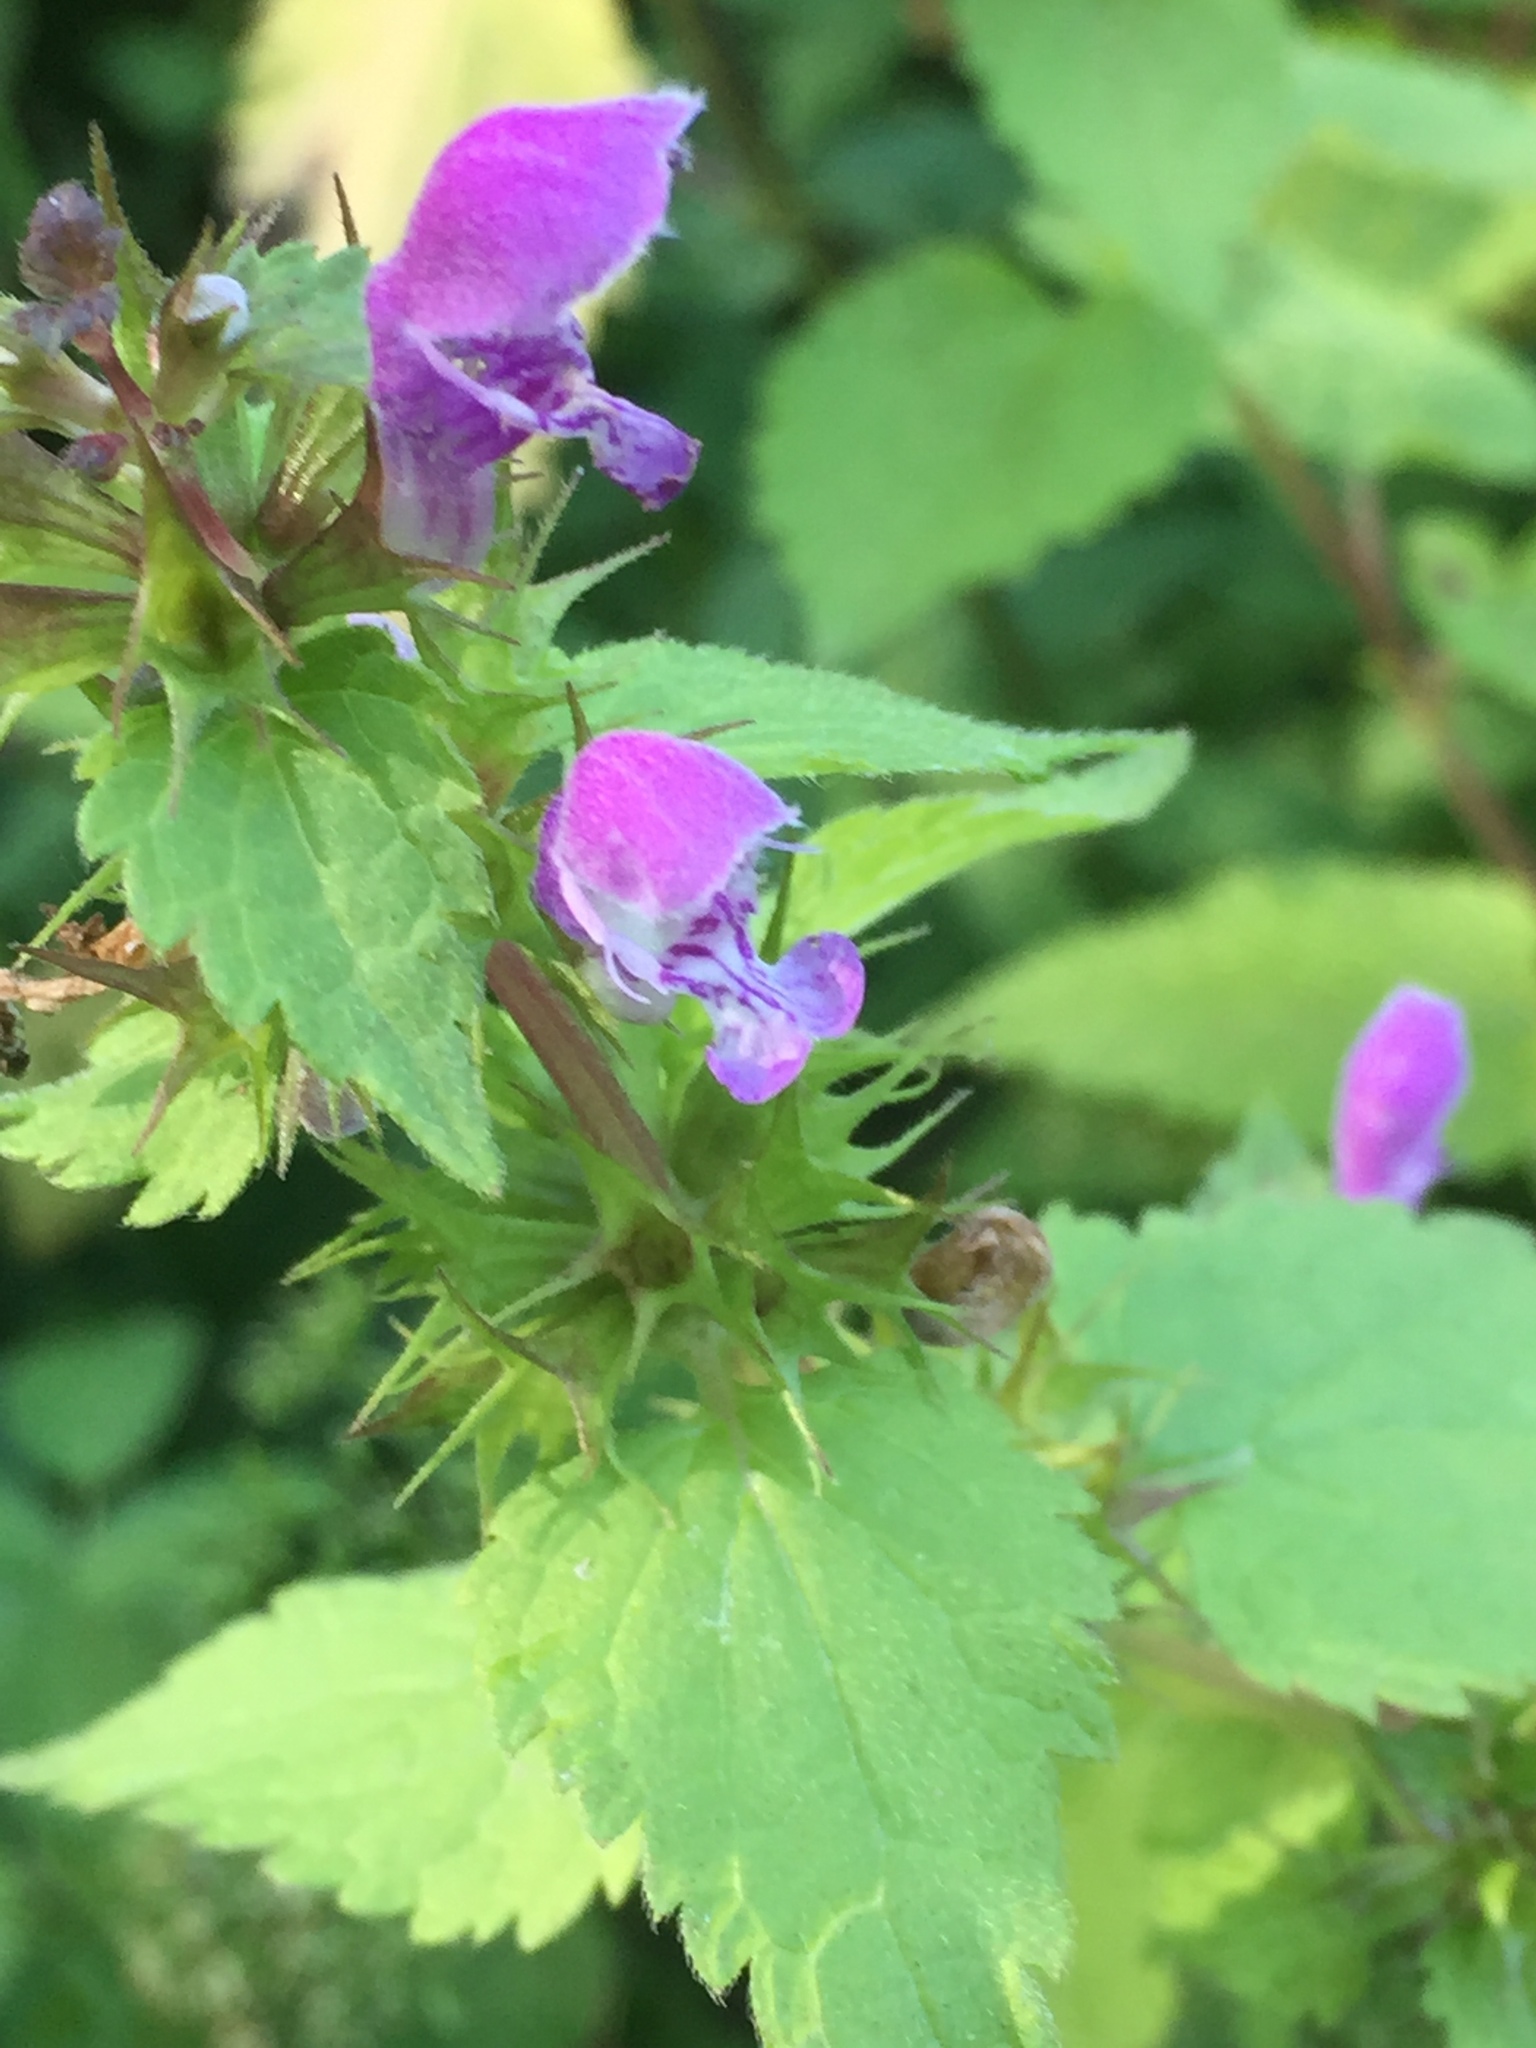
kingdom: Plantae
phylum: Tracheophyta
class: Magnoliopsida
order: Lamiales
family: Lamiaceae
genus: Lamium
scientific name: Lamium maculatum
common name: Spotted dead-nettle
